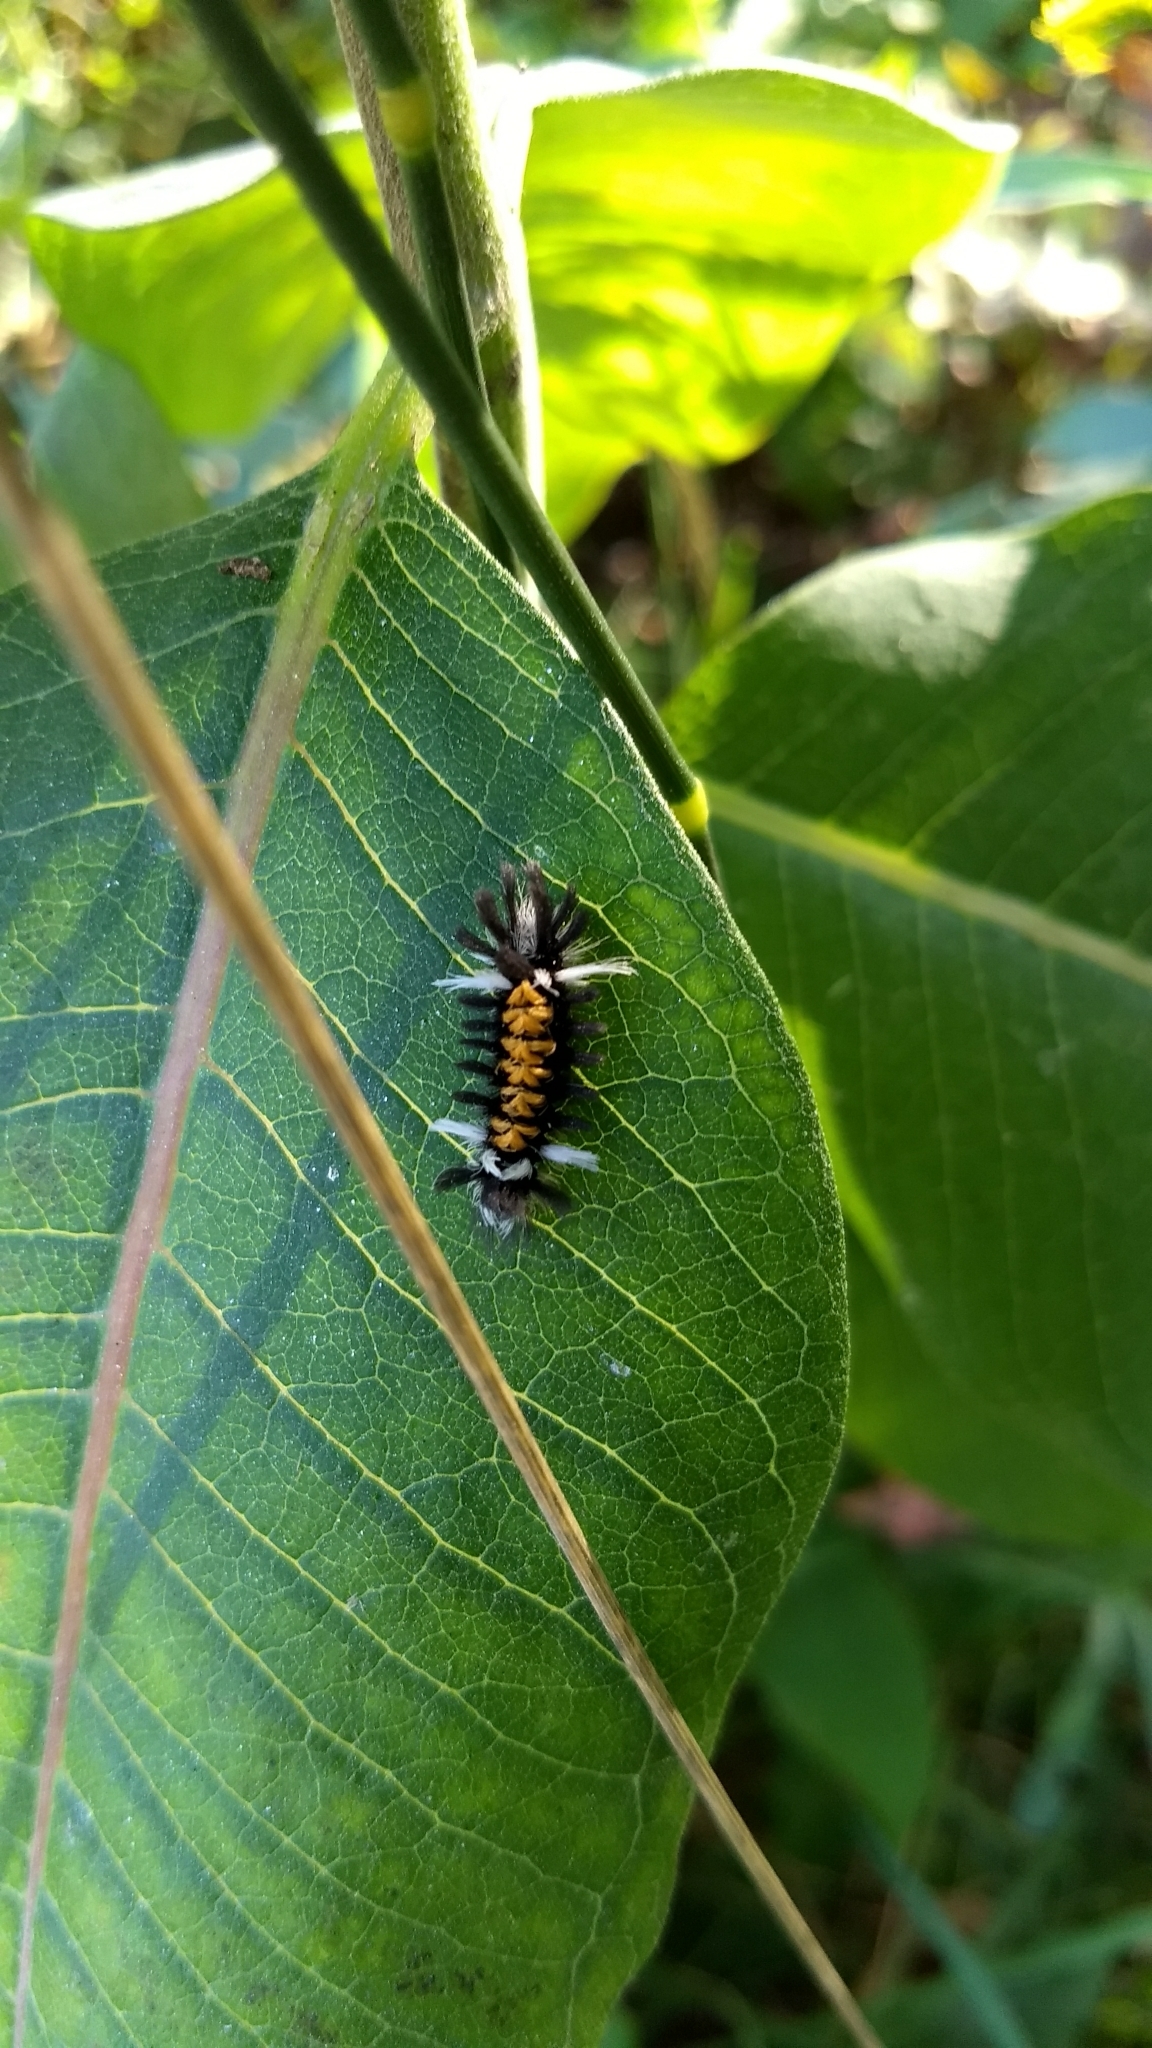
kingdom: Animalia
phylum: Arthropoda
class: Insecta
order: Lepidoptera
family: Erebidae
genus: Euchaetes
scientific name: Euchaetes egle
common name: Milkweed tussock moth
